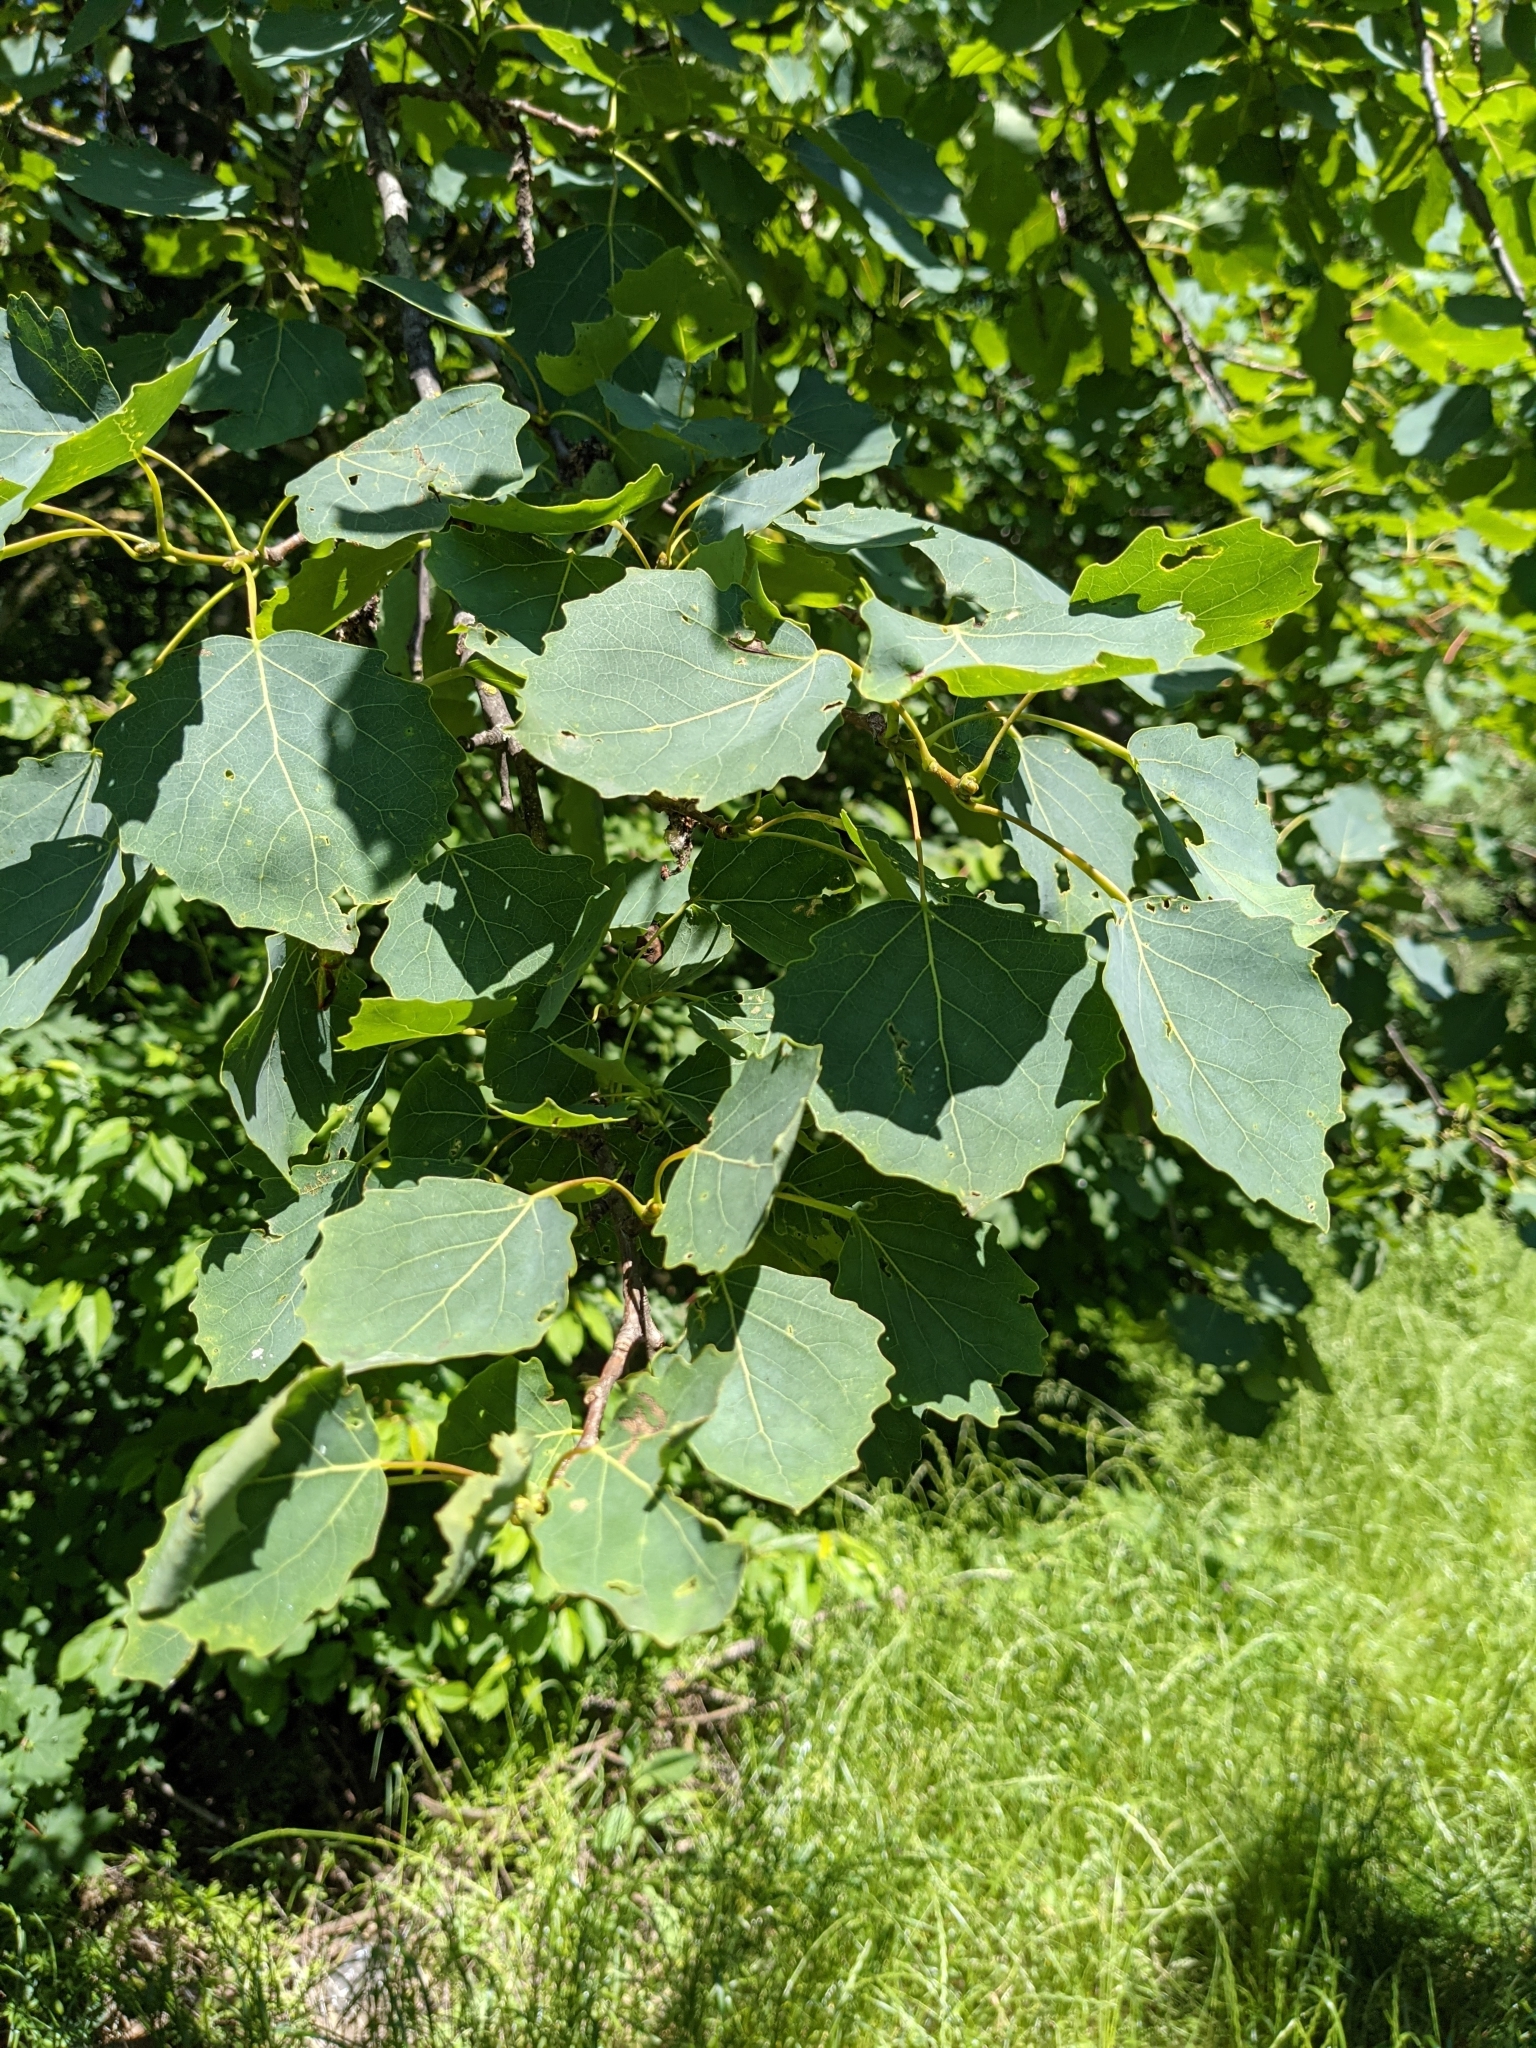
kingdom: Plantae
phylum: Tracheophyta
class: Magnoliopsida
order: Malpighiales
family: Salicaceae
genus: Populus
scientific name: Populus tremula
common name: European aspen
